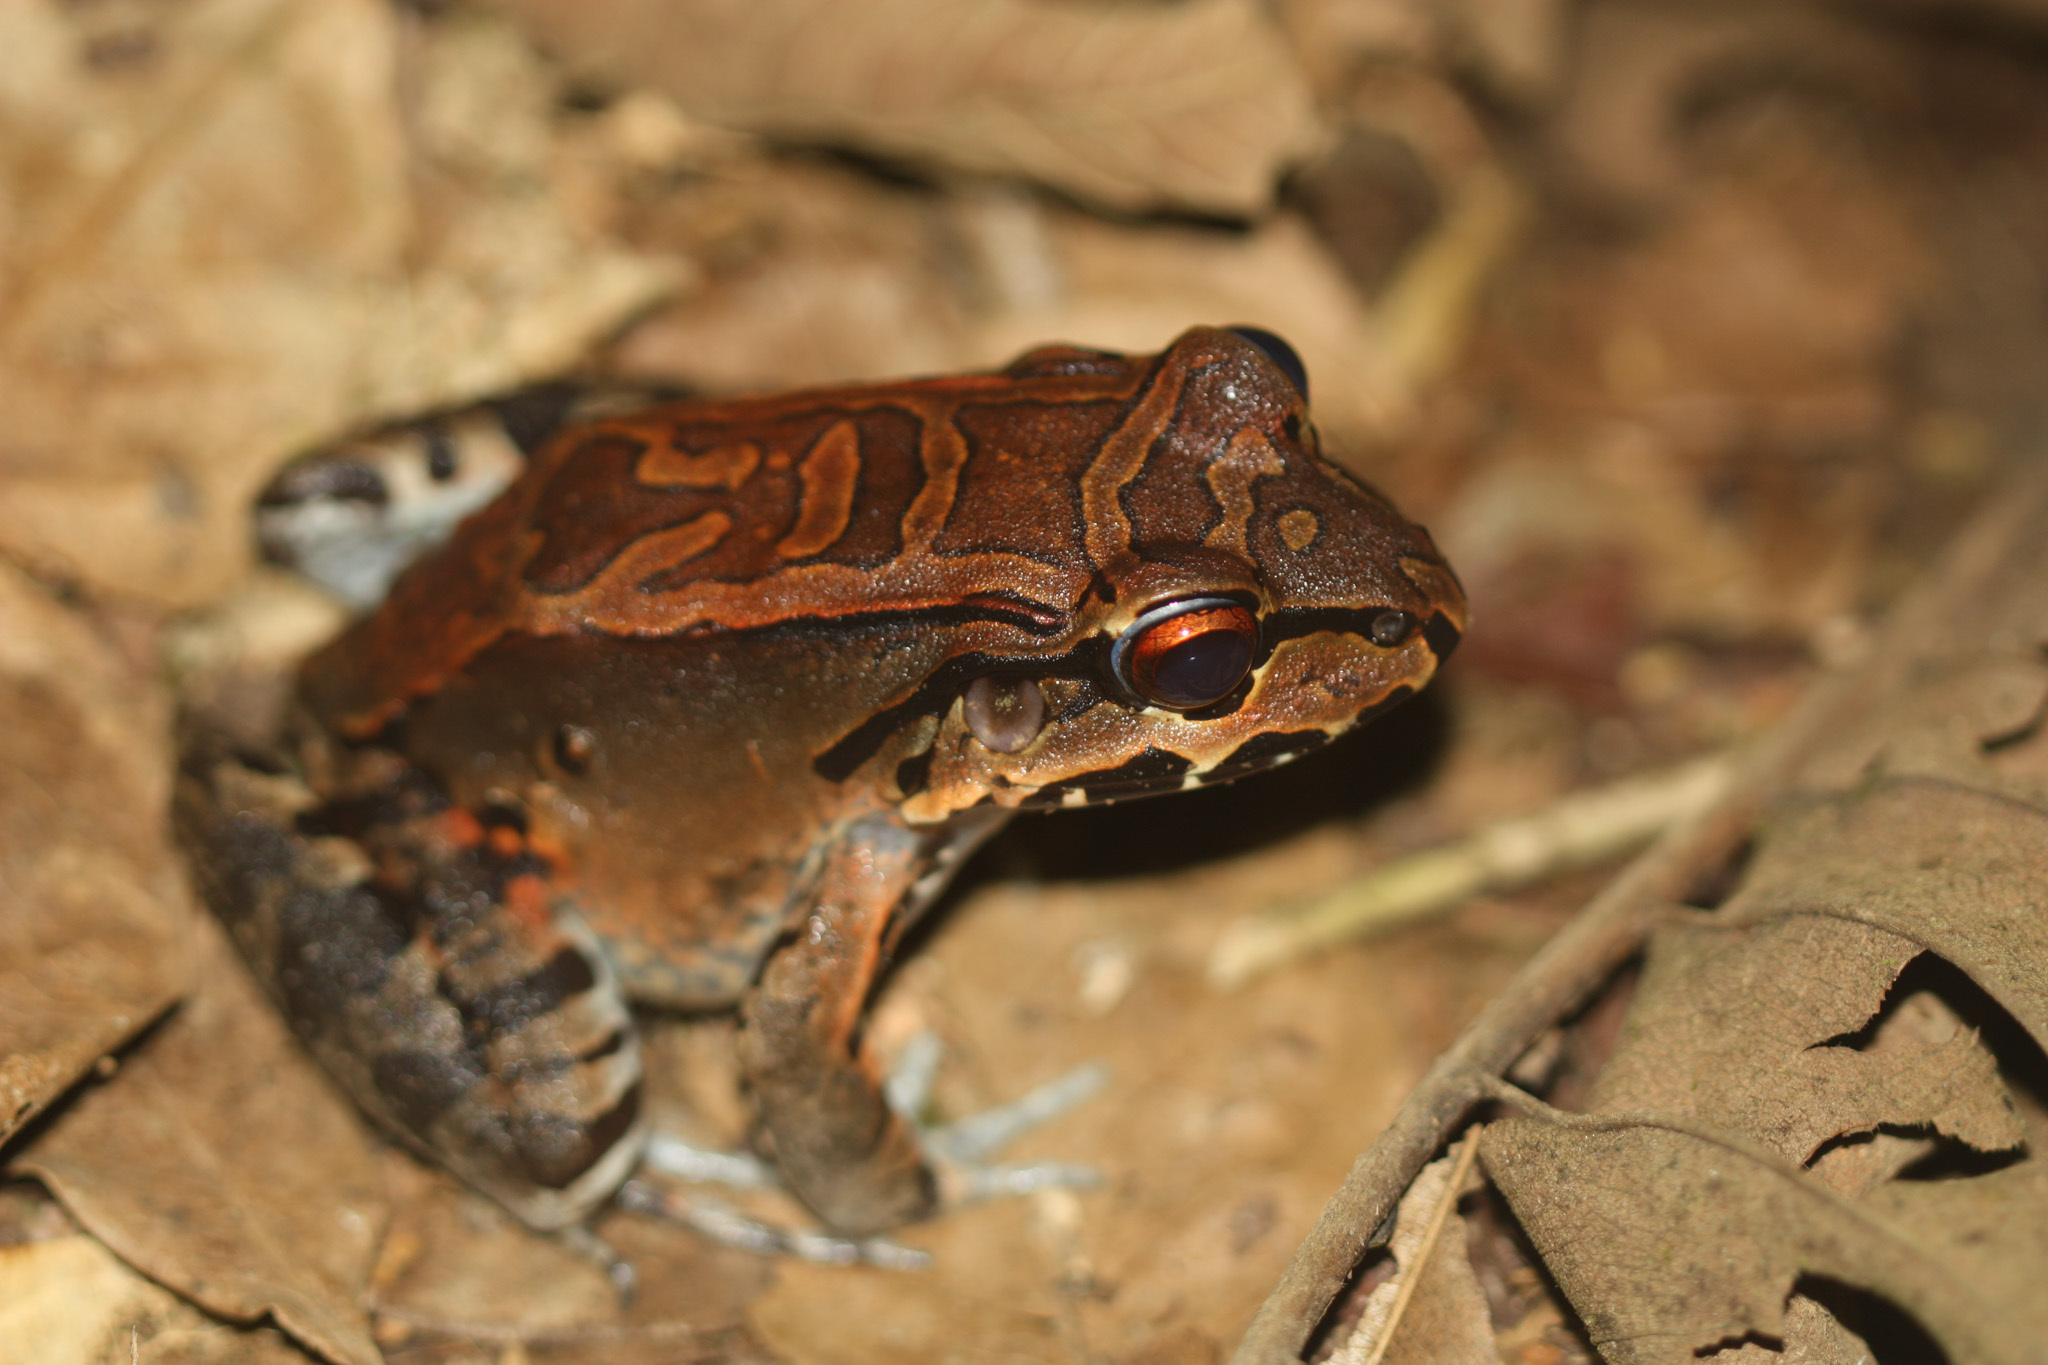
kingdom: Animalia
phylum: Chordata
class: Amphibia
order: Anura
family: Leptodactylidae
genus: Leptodactylus
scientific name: Leptodactylus savagei
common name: Savage's thin-toed frog
